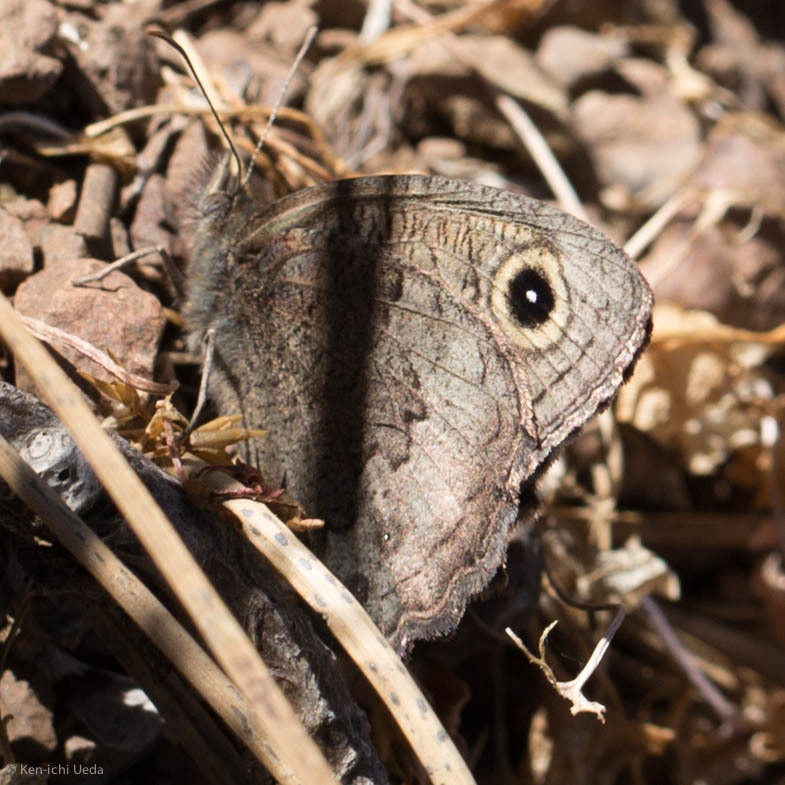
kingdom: Animalia
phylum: Arthropoda
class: Insecta
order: Lepidoptera
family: Nymphalidae
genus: Cercyonis
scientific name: Cercyonis sthenele
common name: Great basin wood-nymph
